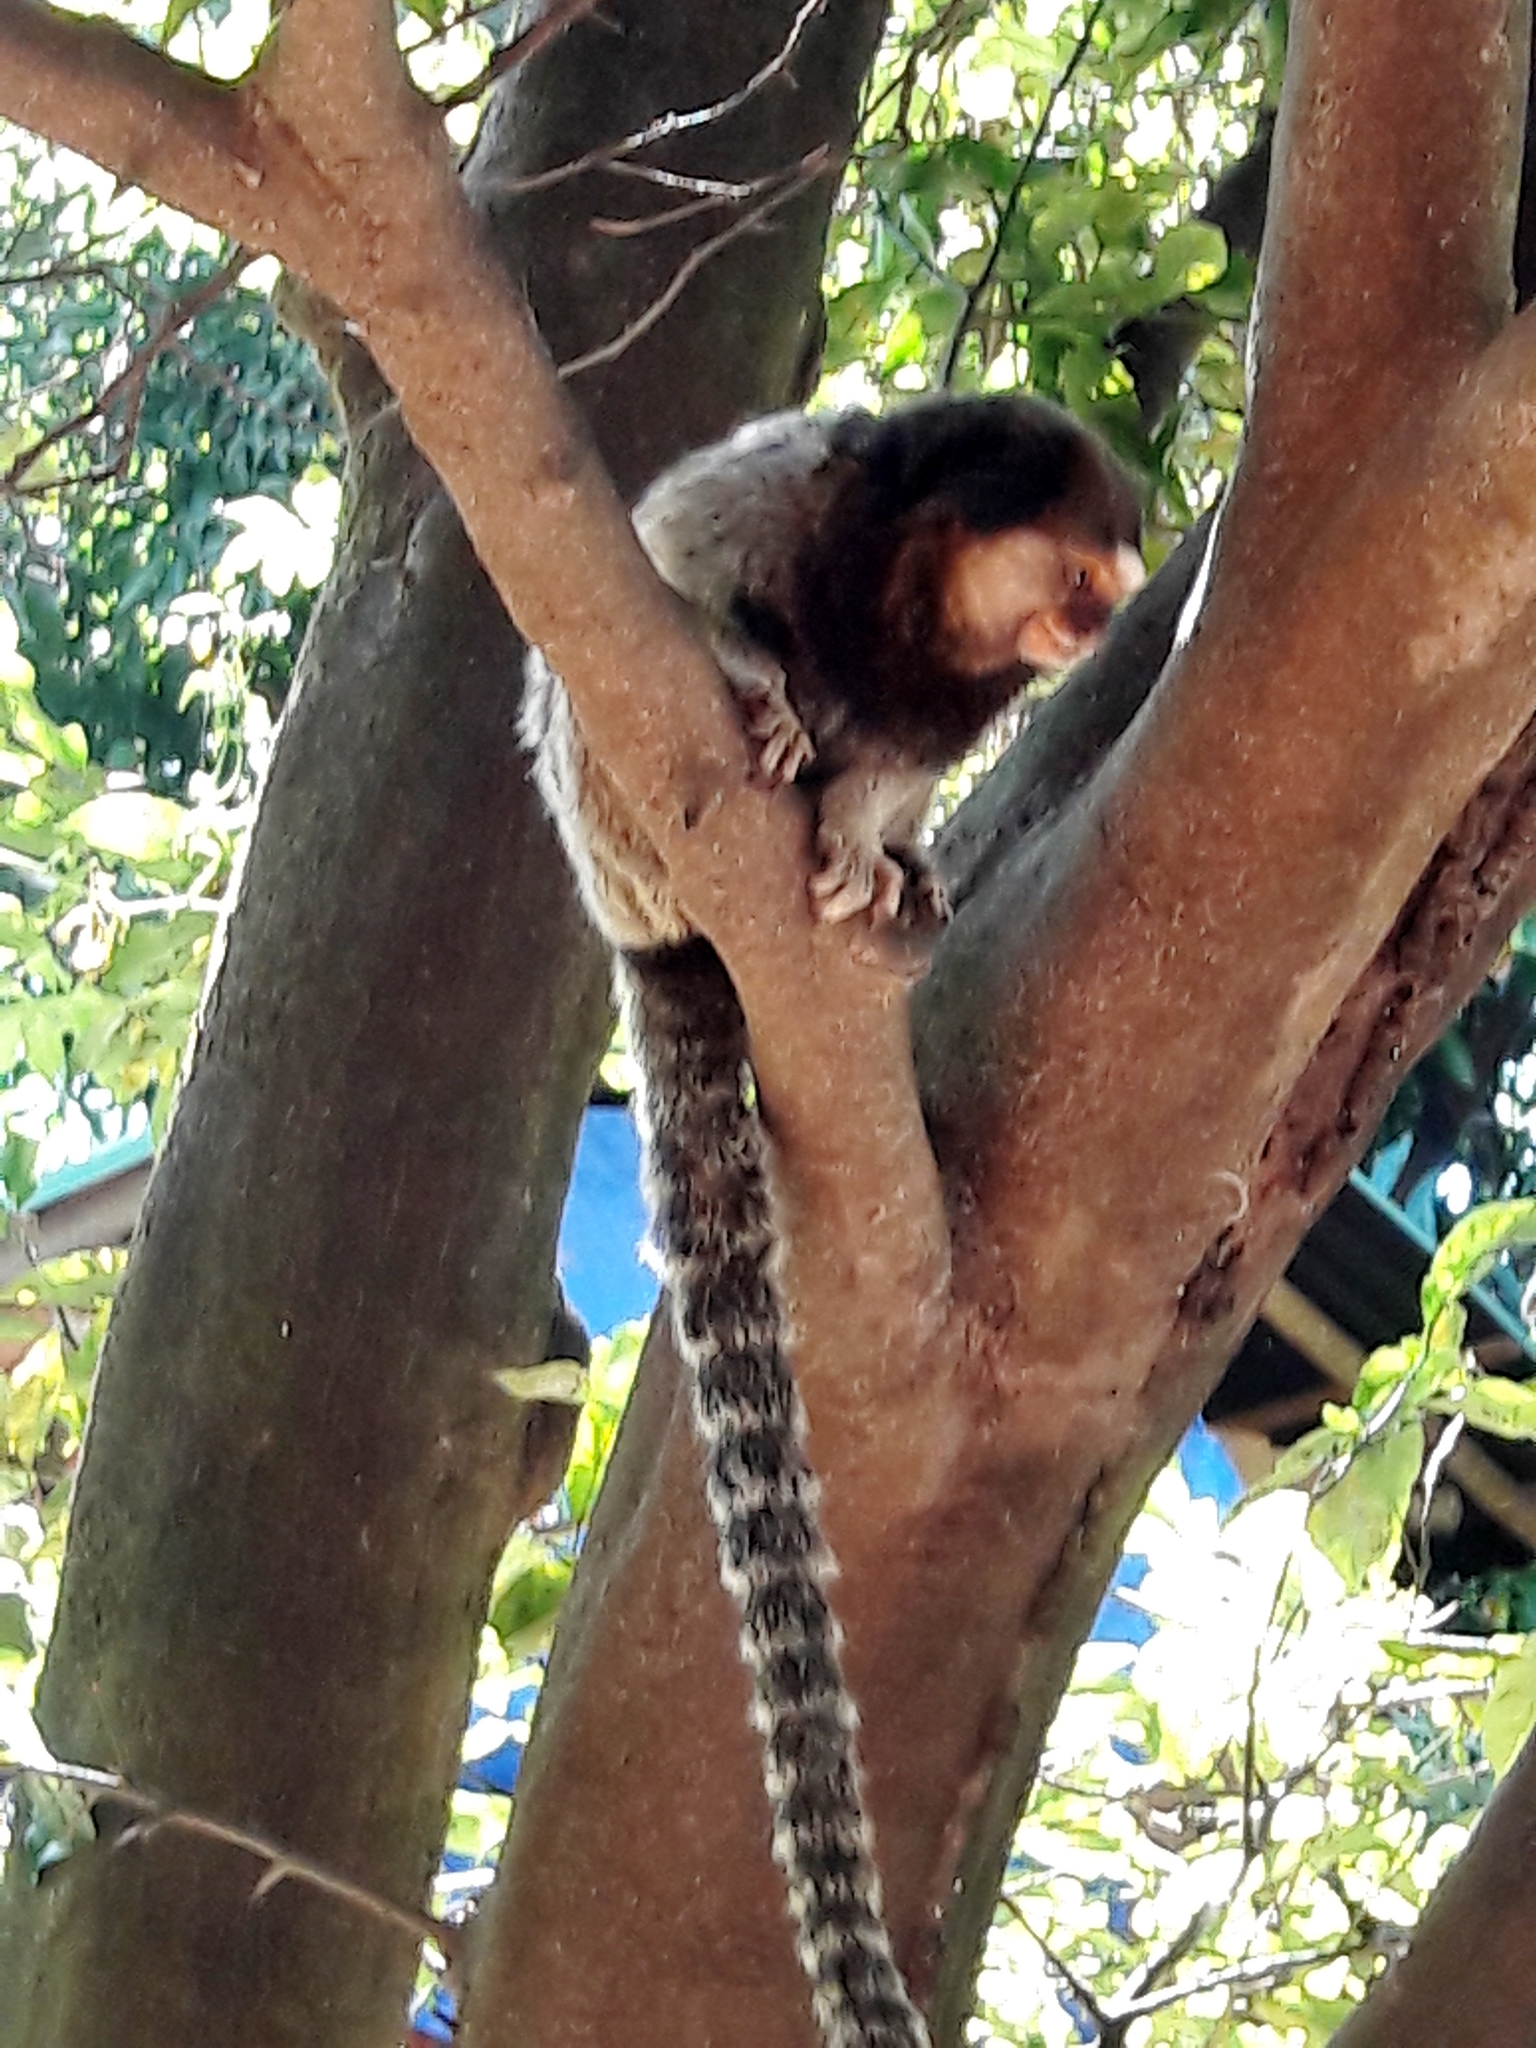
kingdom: Animalia
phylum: Chordata
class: Mammalia
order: Primates
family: Callitrichidae
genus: Callithrix
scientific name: Callithrix penicillata
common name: Black-tufted marmoset
